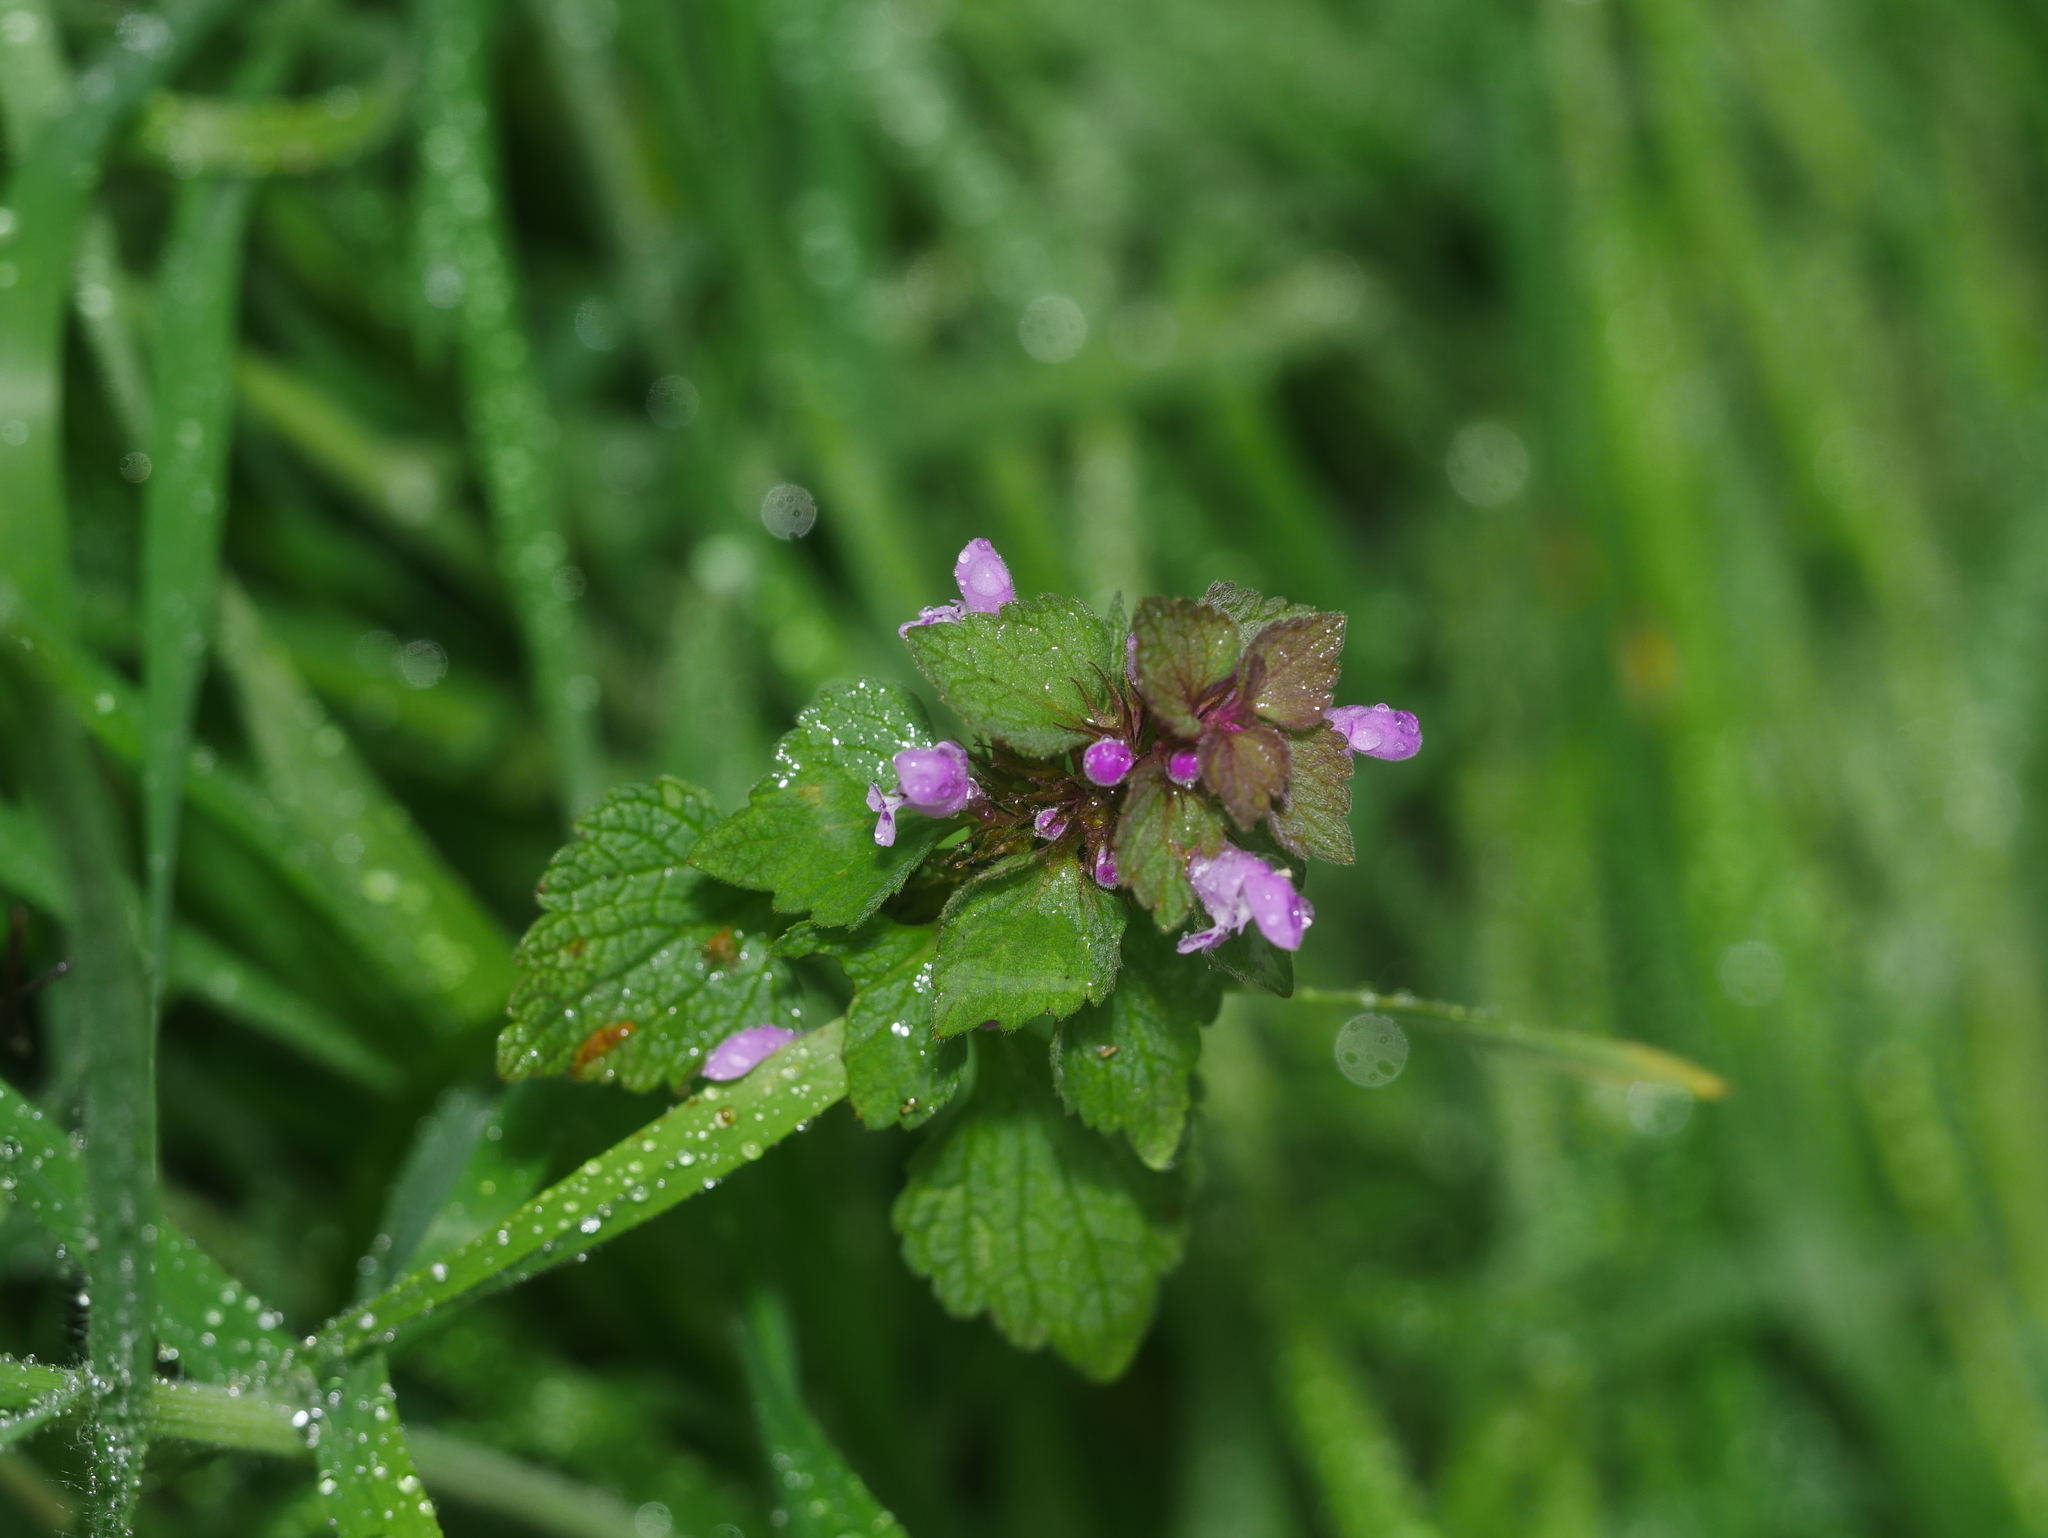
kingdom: Plantae
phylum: Tracheophyta
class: Magnoliopsida
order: Lamiales
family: Lamiaceae
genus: Lamium
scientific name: Lamium purpureum
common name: Red dead-nettle
